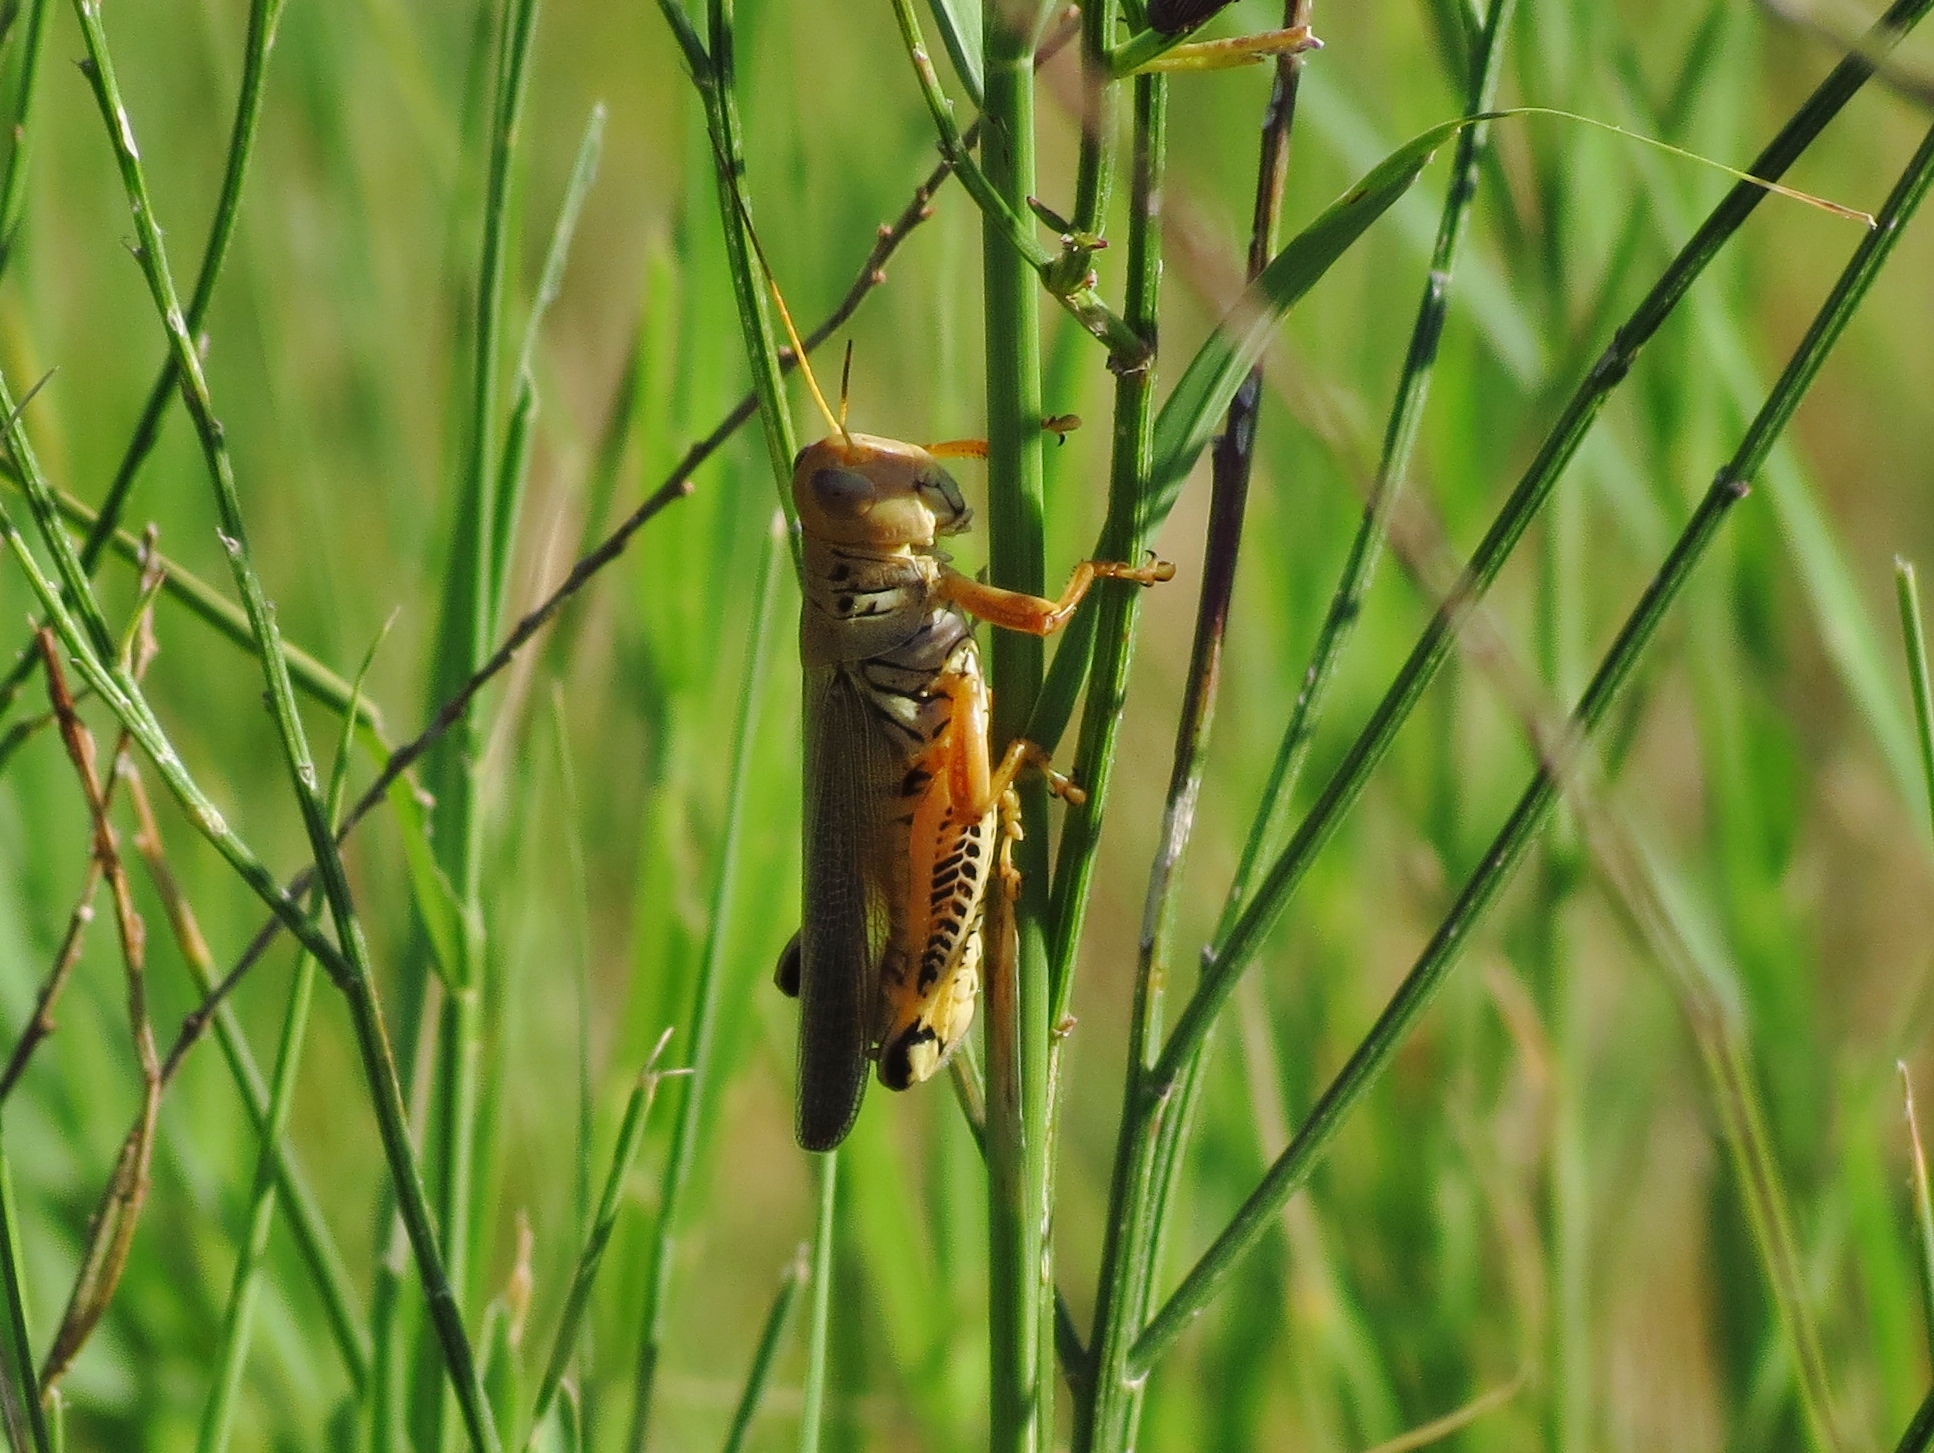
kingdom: Animalia
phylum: Arthropoda
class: Insecta
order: Orthoptera
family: Acrididae
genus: Melanoplus
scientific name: Melanoplus differentialis
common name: Differential grasshopper
